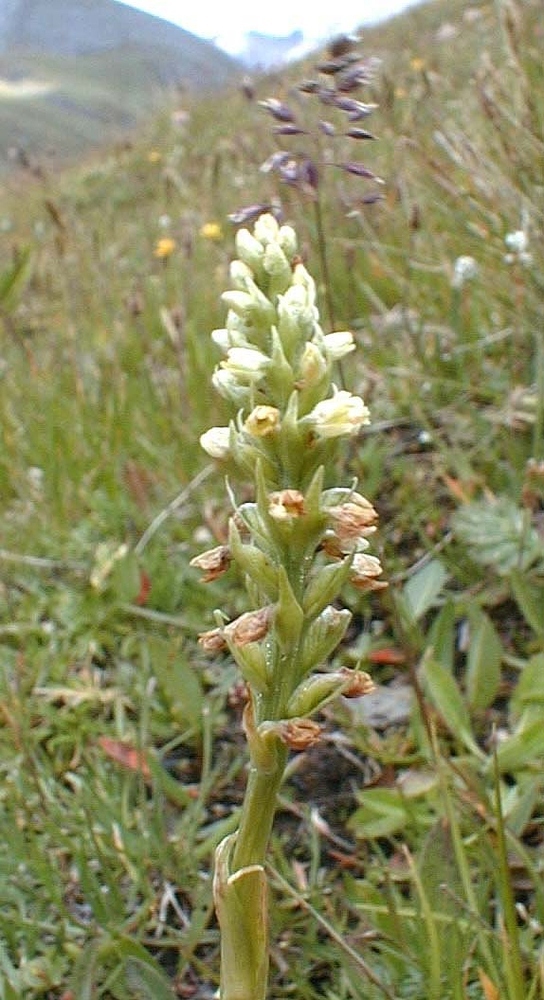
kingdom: Plantae
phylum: Tracheophyta
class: Liliopsida
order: Asparagales
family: Orchidaceae
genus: Pseudorchis
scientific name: Pseudorchis albida
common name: Small-white orchid
